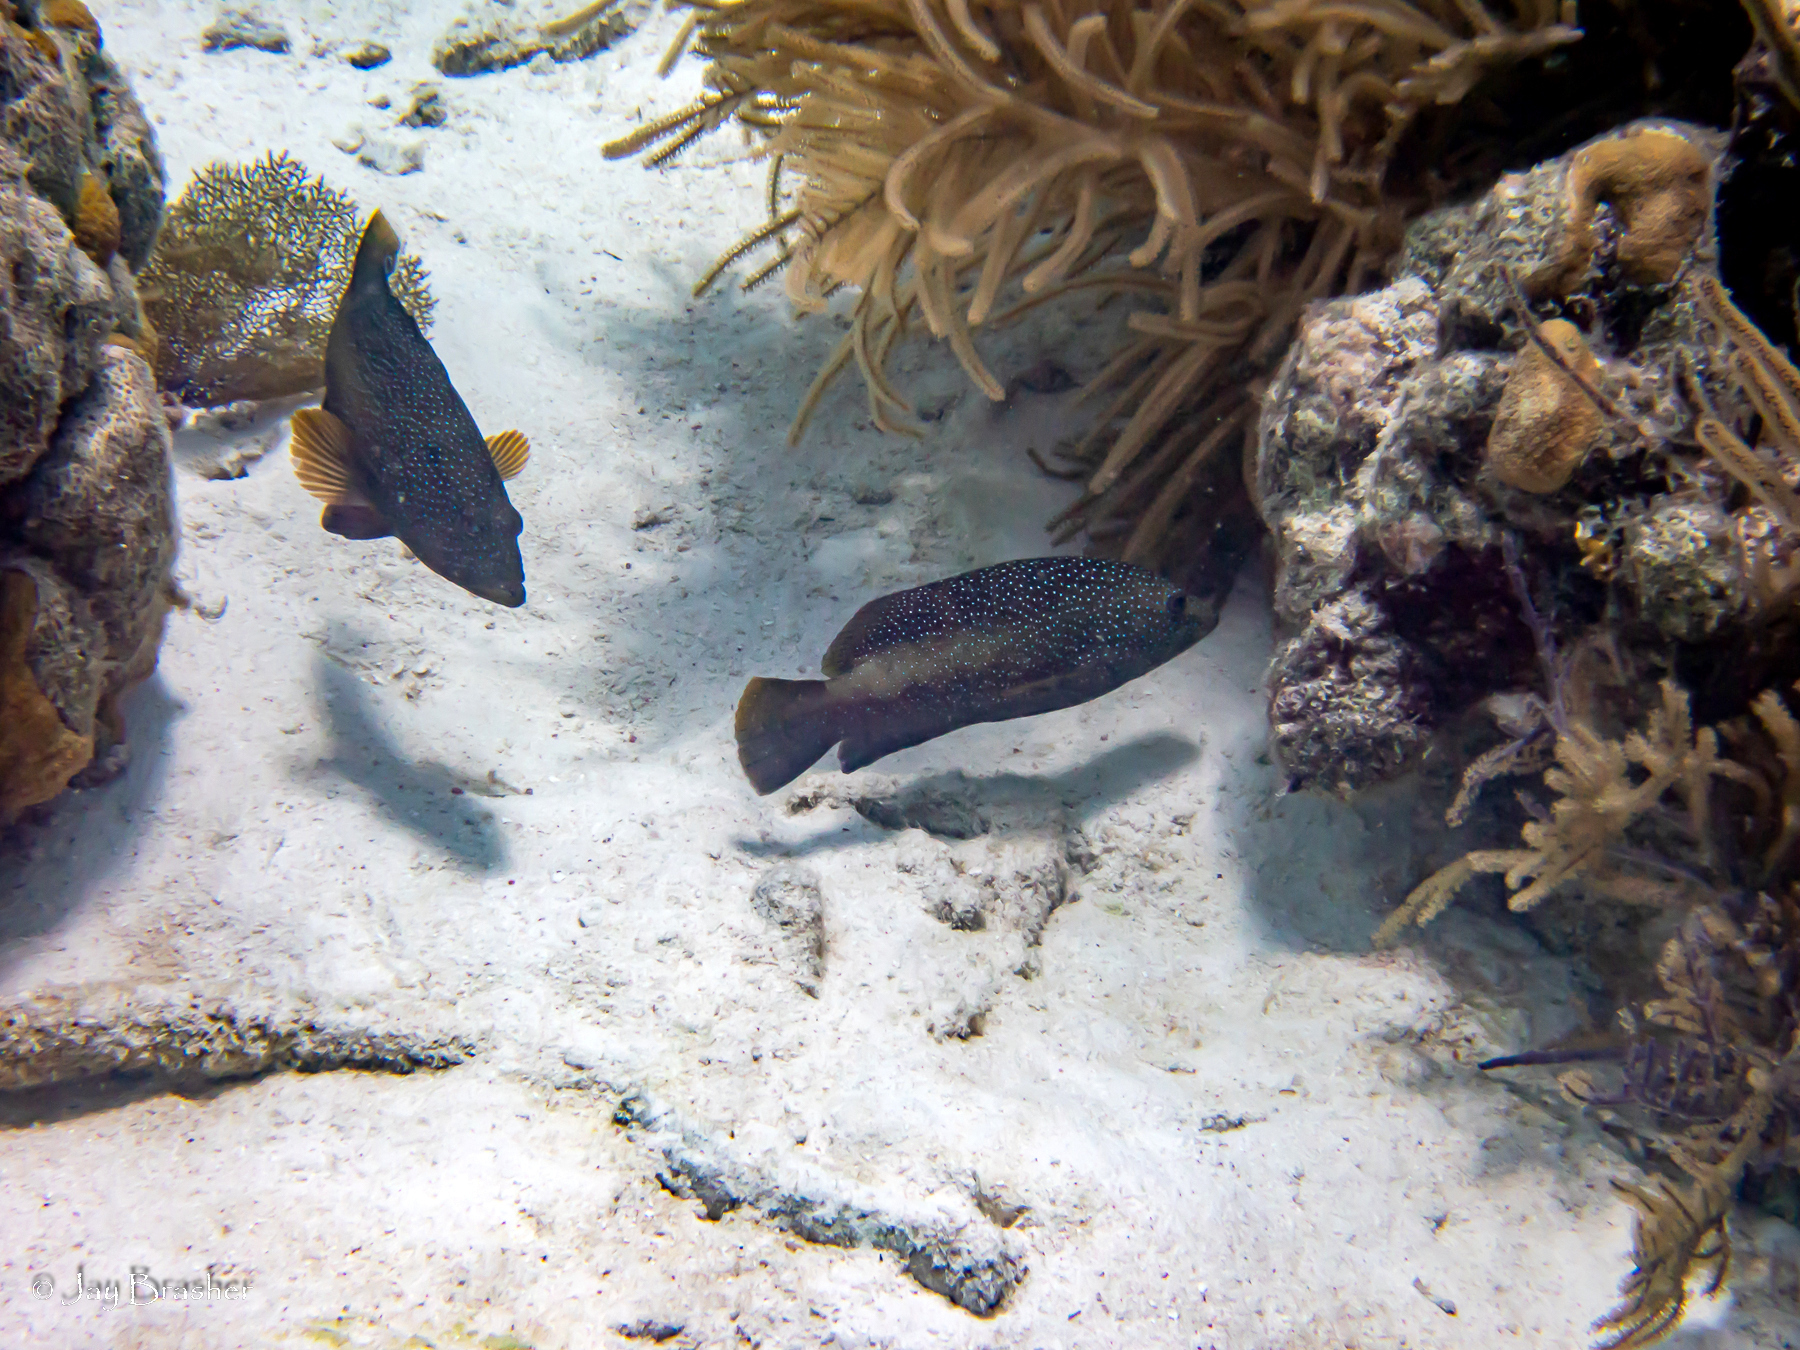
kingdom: Animalia
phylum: Chordata
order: Perciformes
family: Serranidae
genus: Cephalopholis
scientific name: Cephalopholis fulva
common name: Butterfish
